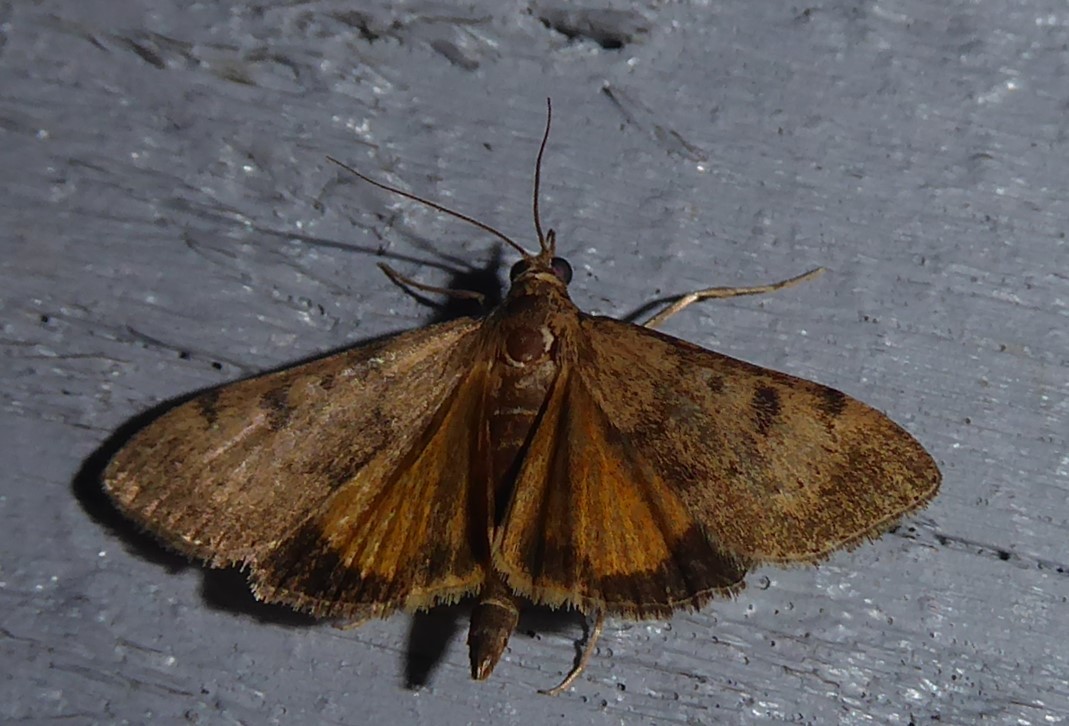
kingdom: Animalia
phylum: Arthropoda
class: Insecta
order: Lepidoptera
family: Crambidae
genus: Uresiphita
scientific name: Uresiphita
